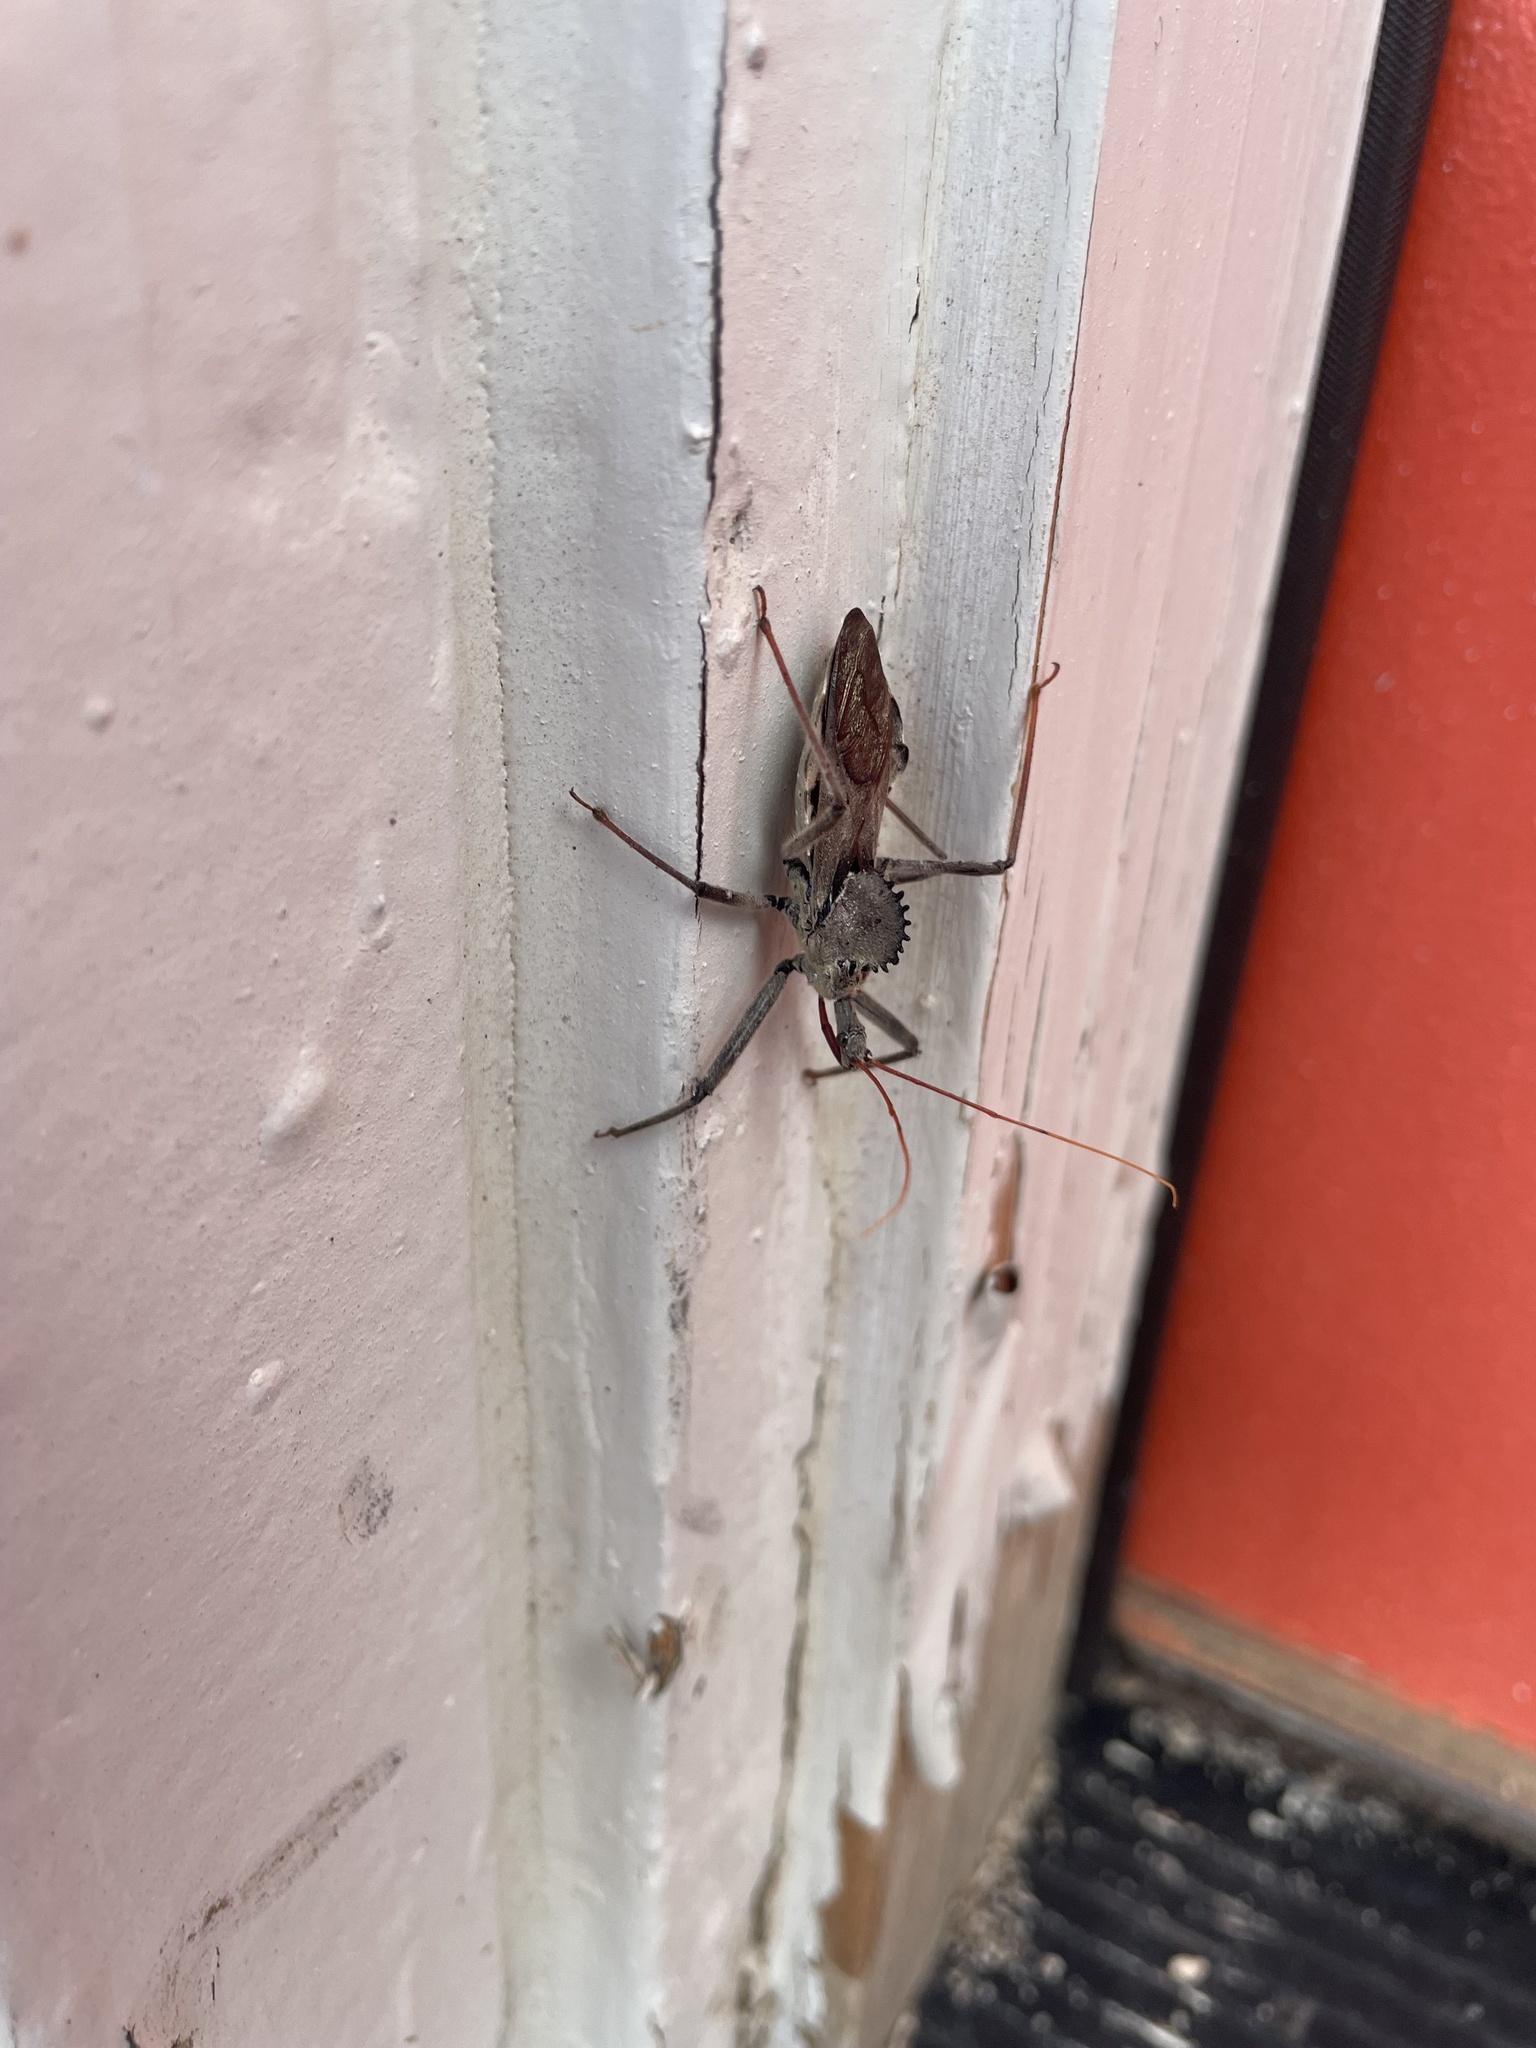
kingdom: Animalia
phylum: Arthropoda
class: Insecta
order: Hemiptera
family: Reduviidae
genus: Arilus
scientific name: Arilus cristatus
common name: North american wheel bug
